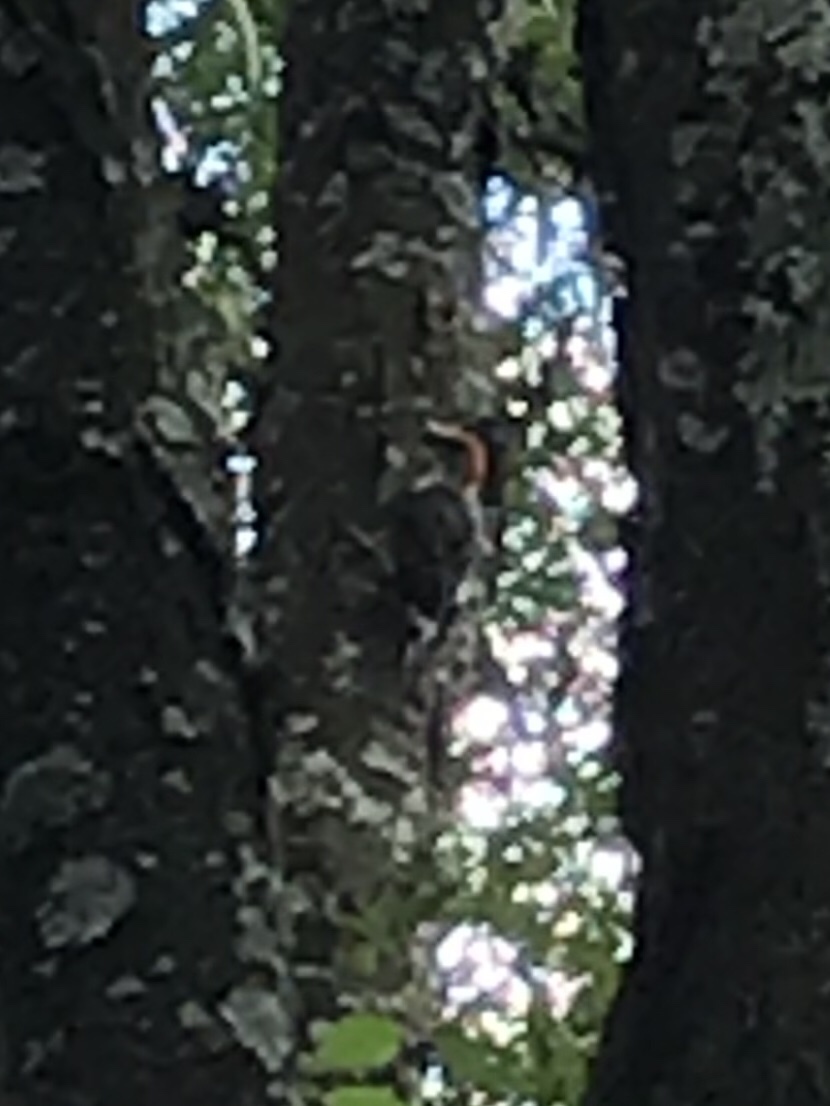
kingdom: Animalia
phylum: Chordata
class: Aves
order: Piciformes
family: Picidae
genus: Melanerpes
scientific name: Melanerpes carolinus
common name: Red-bellied woodpecker
